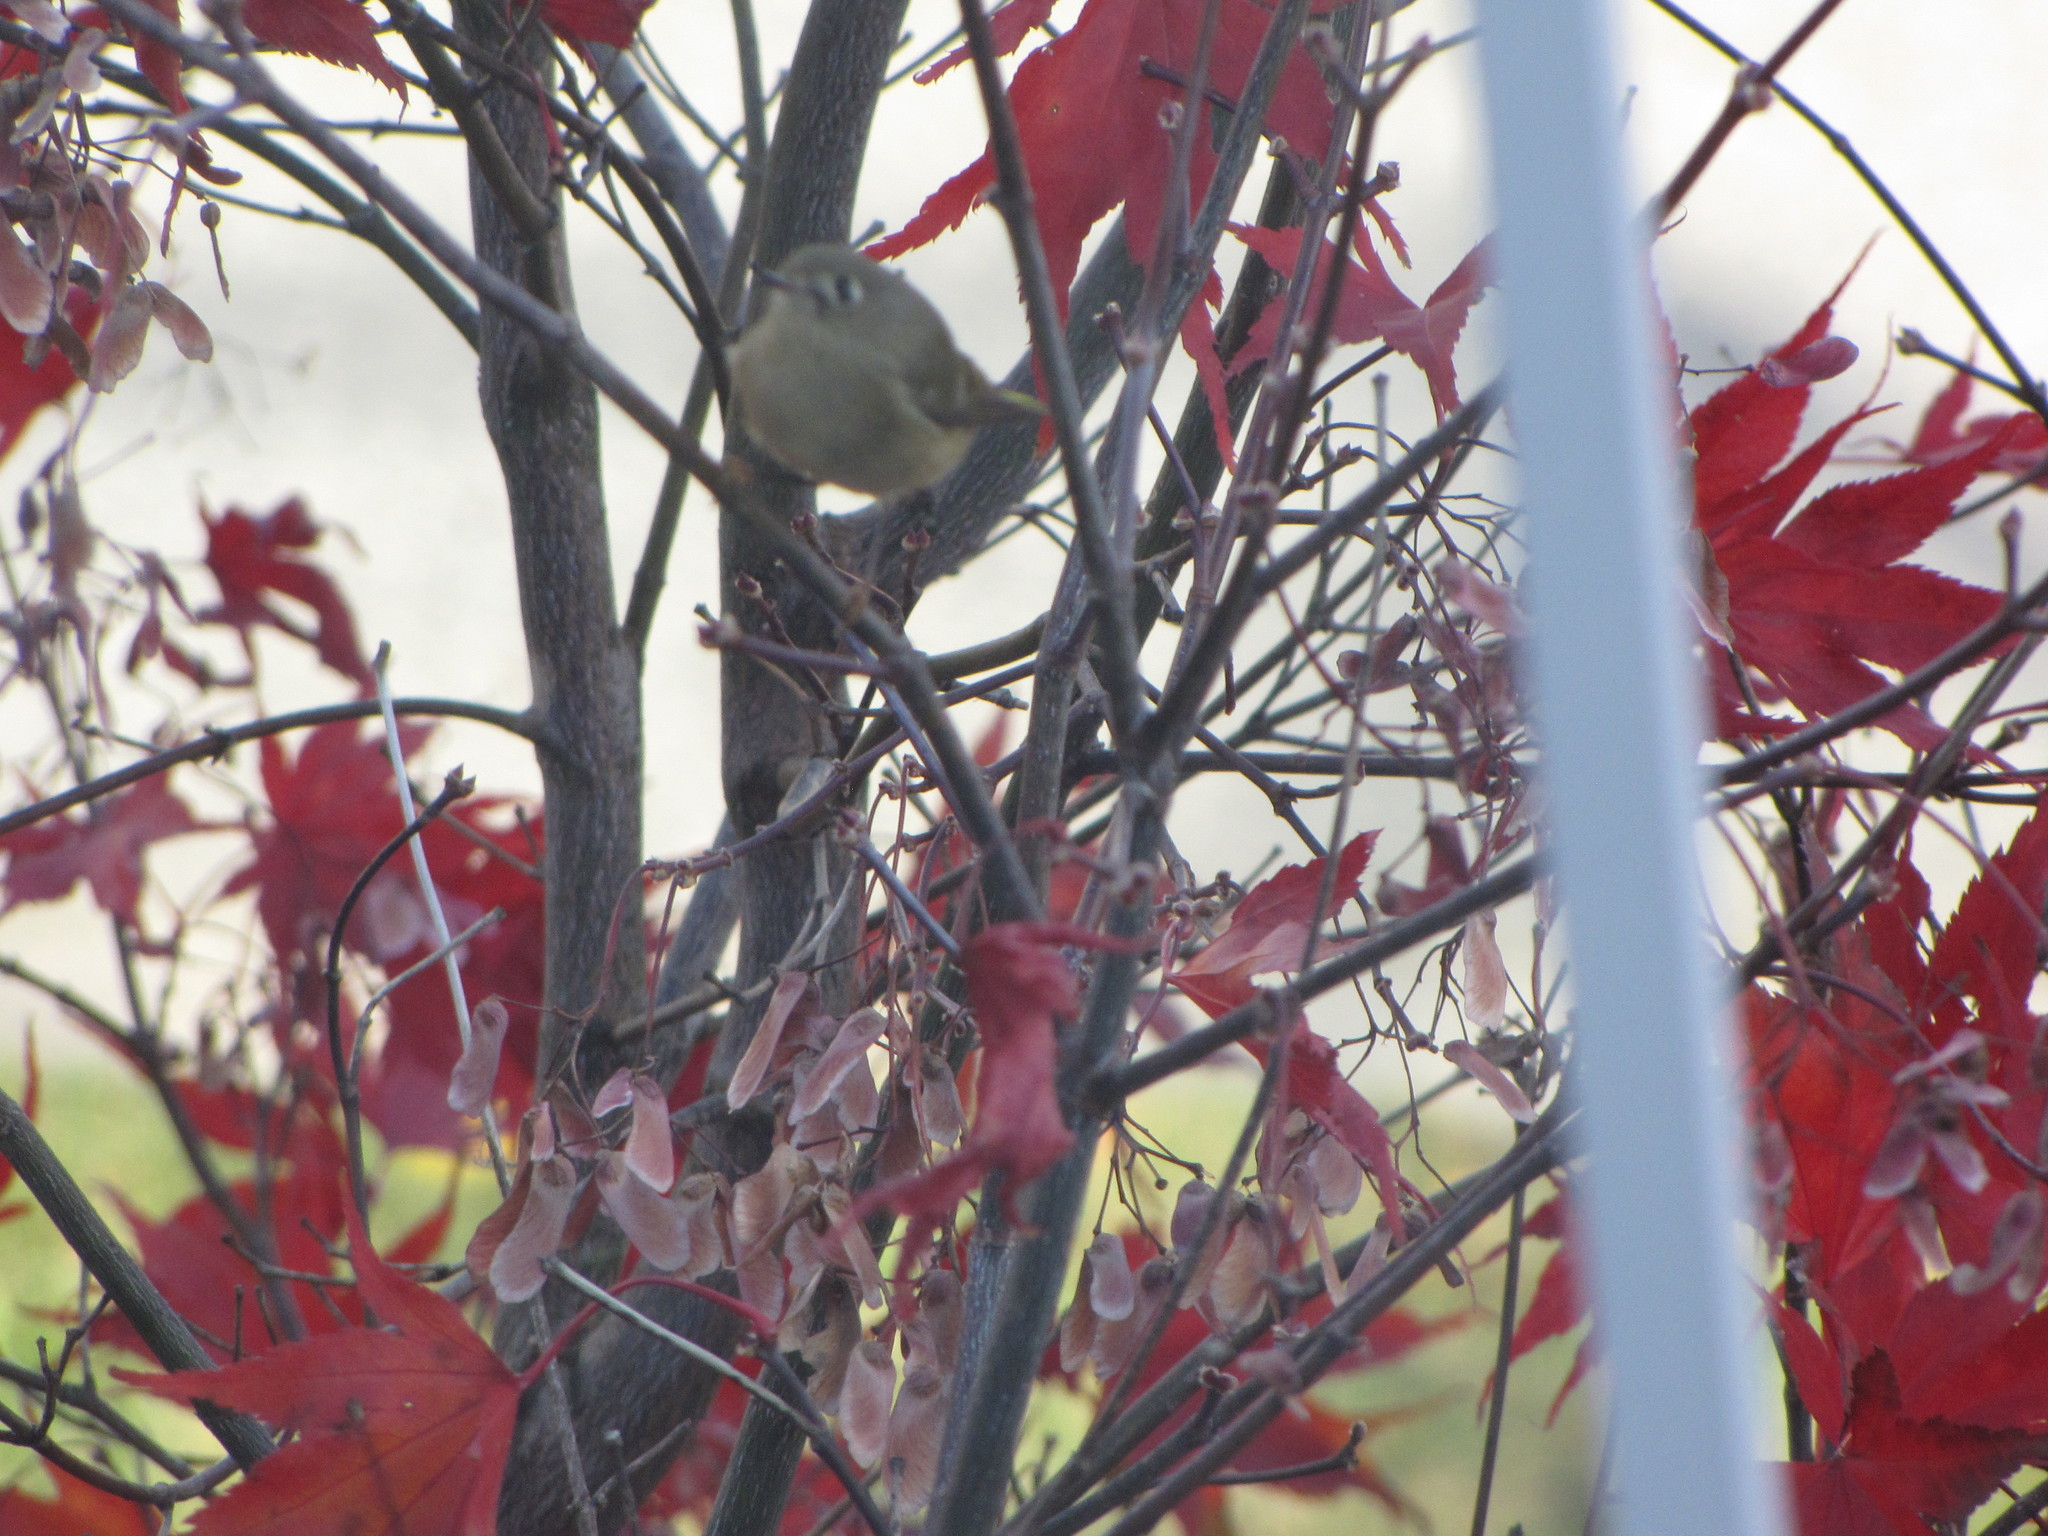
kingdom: Animalia
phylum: Chordata
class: Aves
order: Passeriformes
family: Regulidae
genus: Regulus
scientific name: Regulus calendula
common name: Ruby-crowned kinglet
